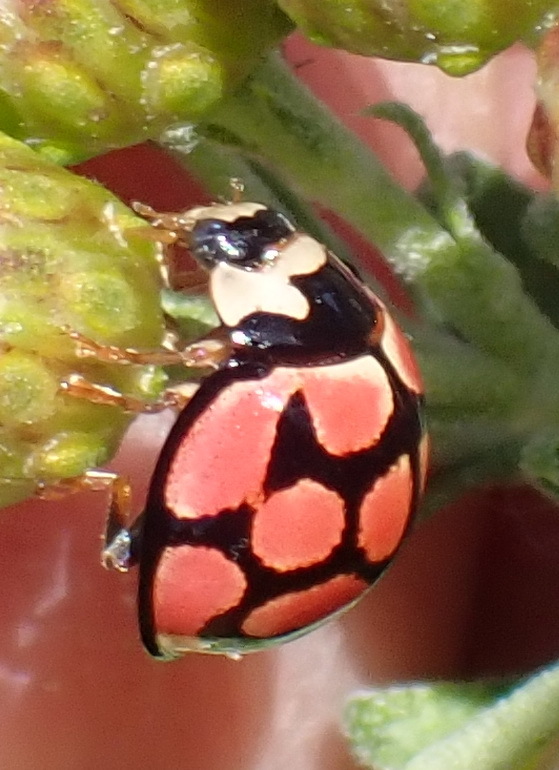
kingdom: Animalia
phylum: Arthropoda
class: Insecta
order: Coleoptera
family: Coccinellidae
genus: Cheilomenes
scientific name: Cheilomenes lunata
